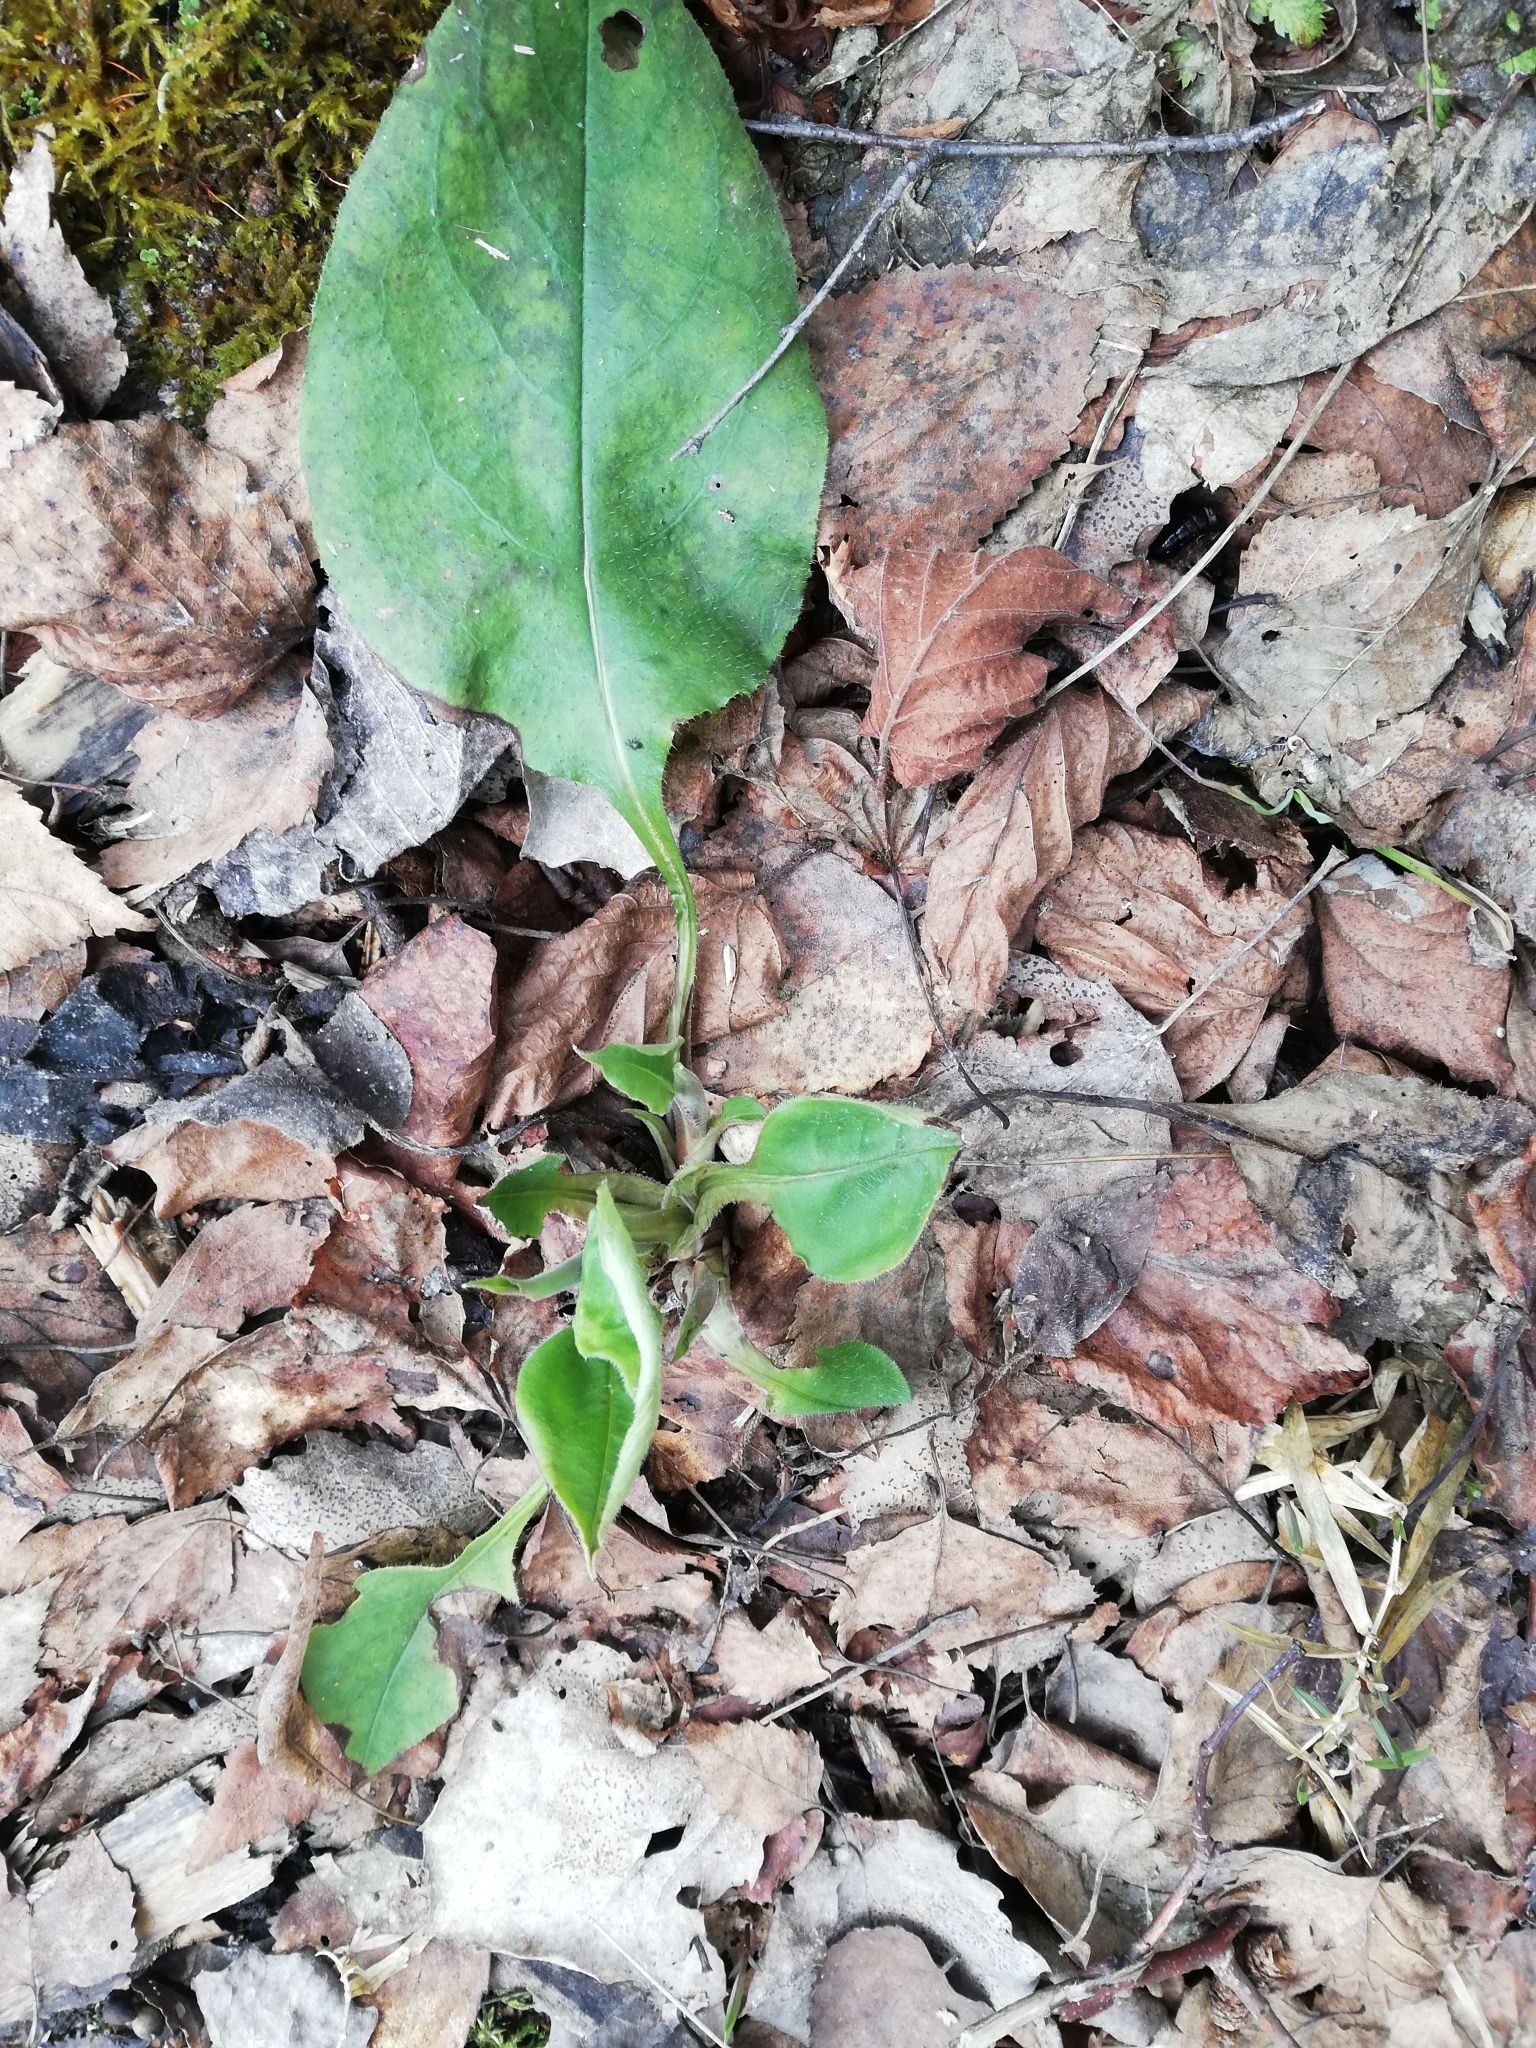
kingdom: Plantae
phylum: Tracheophyta
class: Magnoliopsida
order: Boraginales
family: Boraginaceae
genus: Pulmonaria
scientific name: Pulmonaria obscura
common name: Suffolk lungwort
